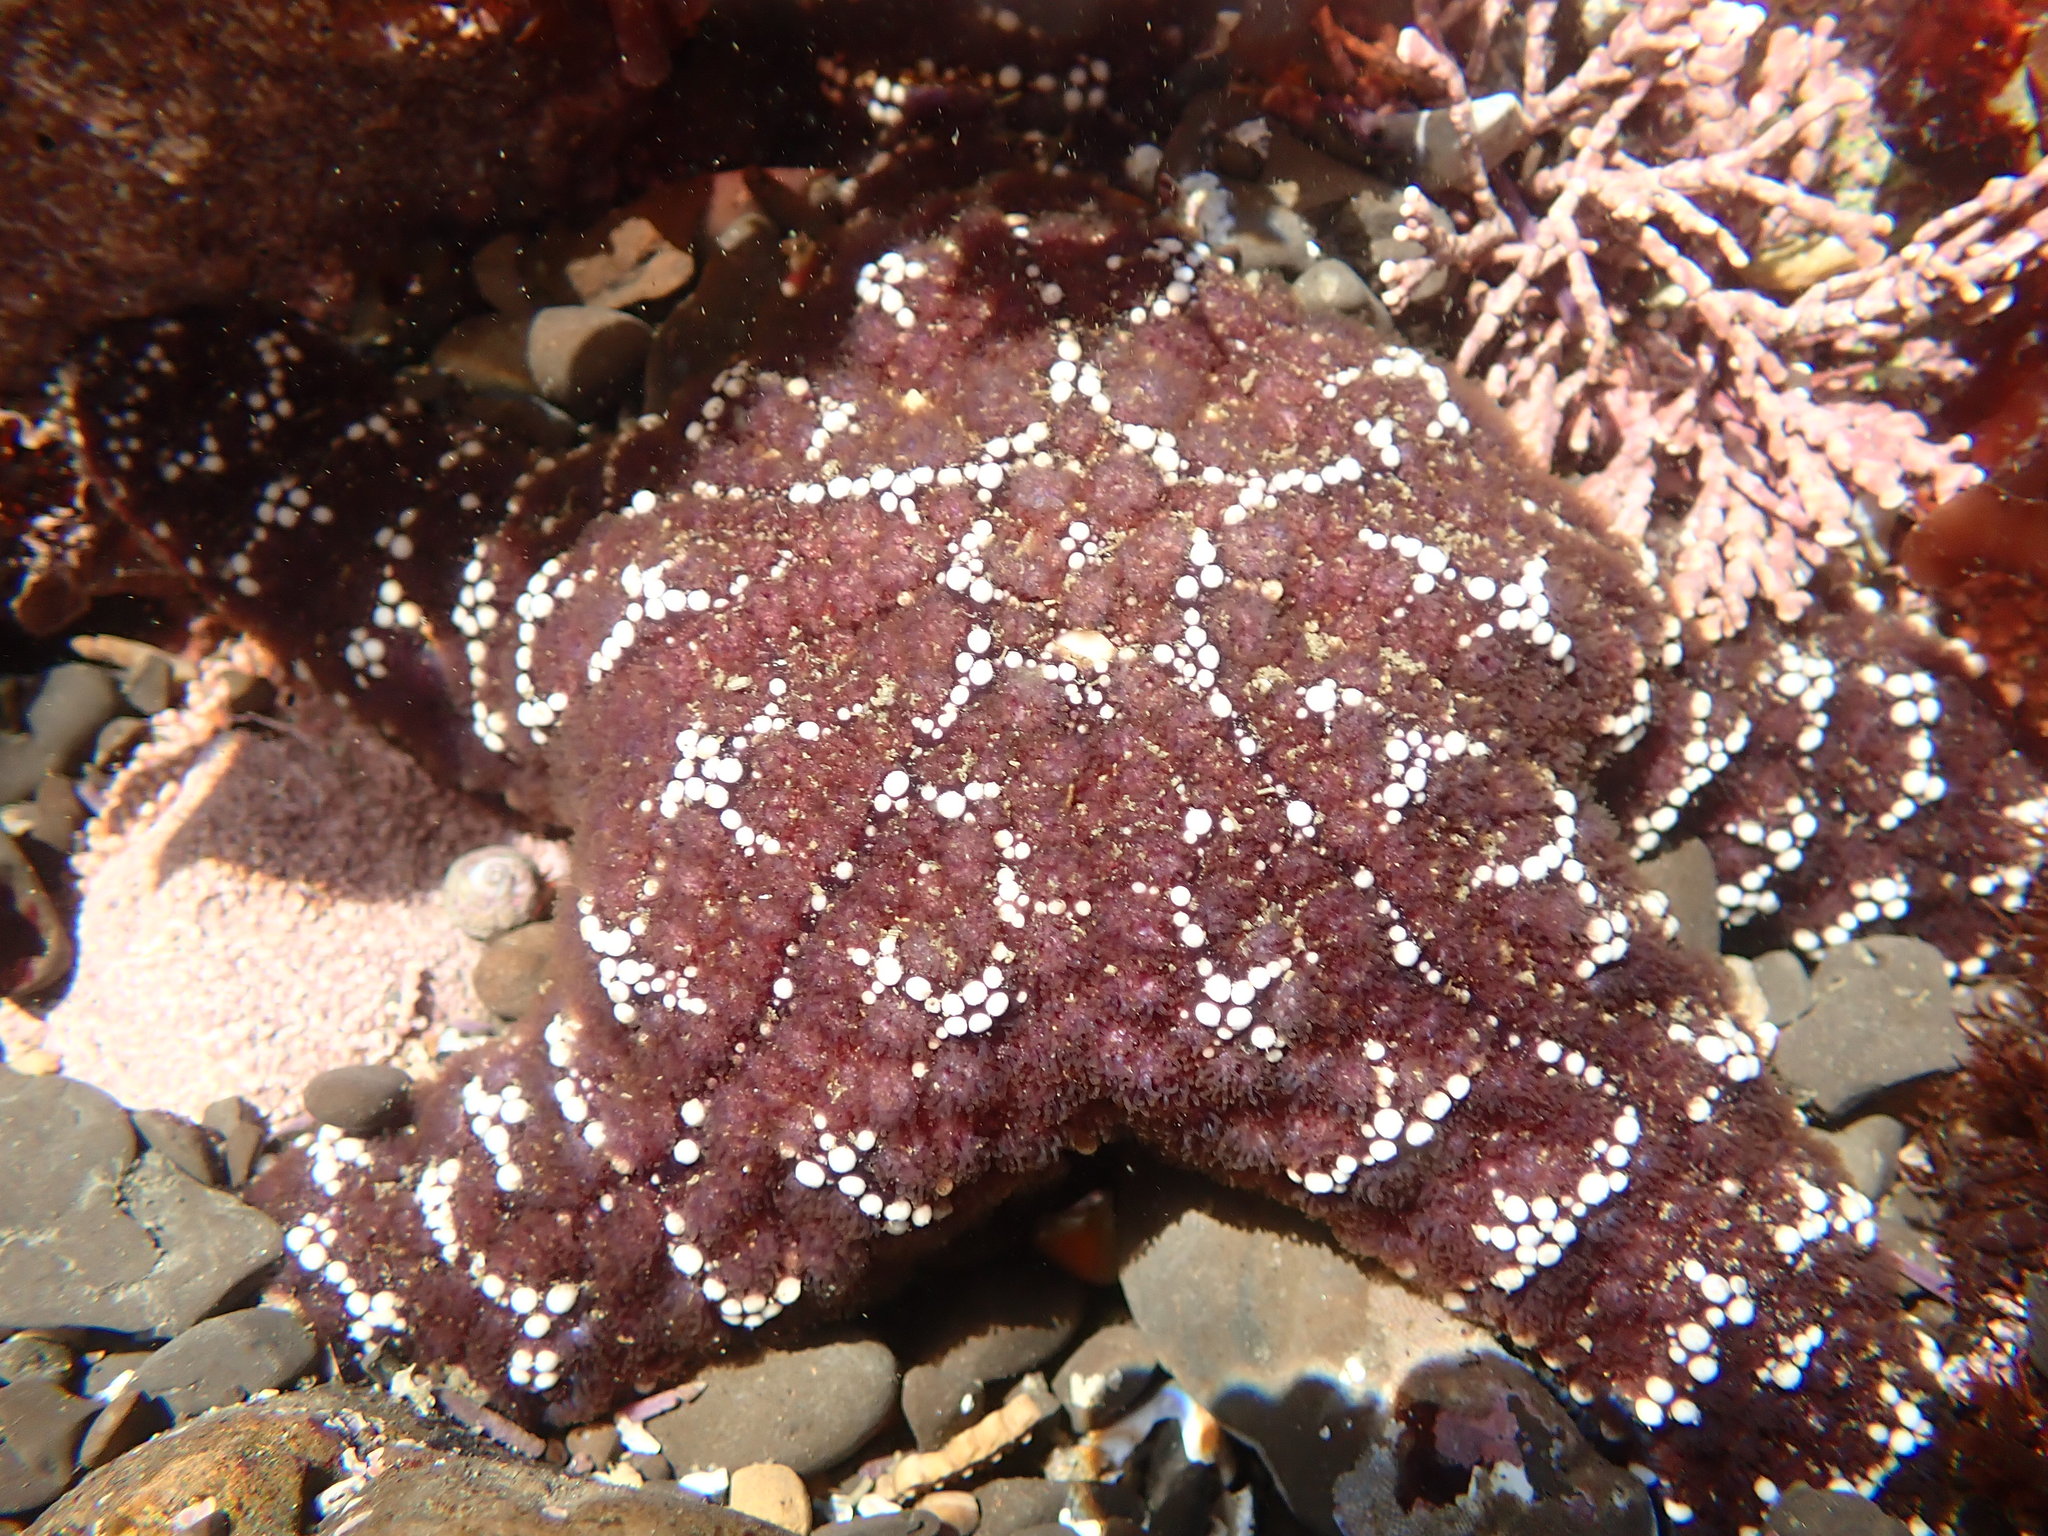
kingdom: Animalia
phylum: Echinodermata
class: Asteroidea
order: Forcipulatida
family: Asteriidae
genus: Pisaster
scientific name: Pisaster ochraceus
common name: Ochre stars
